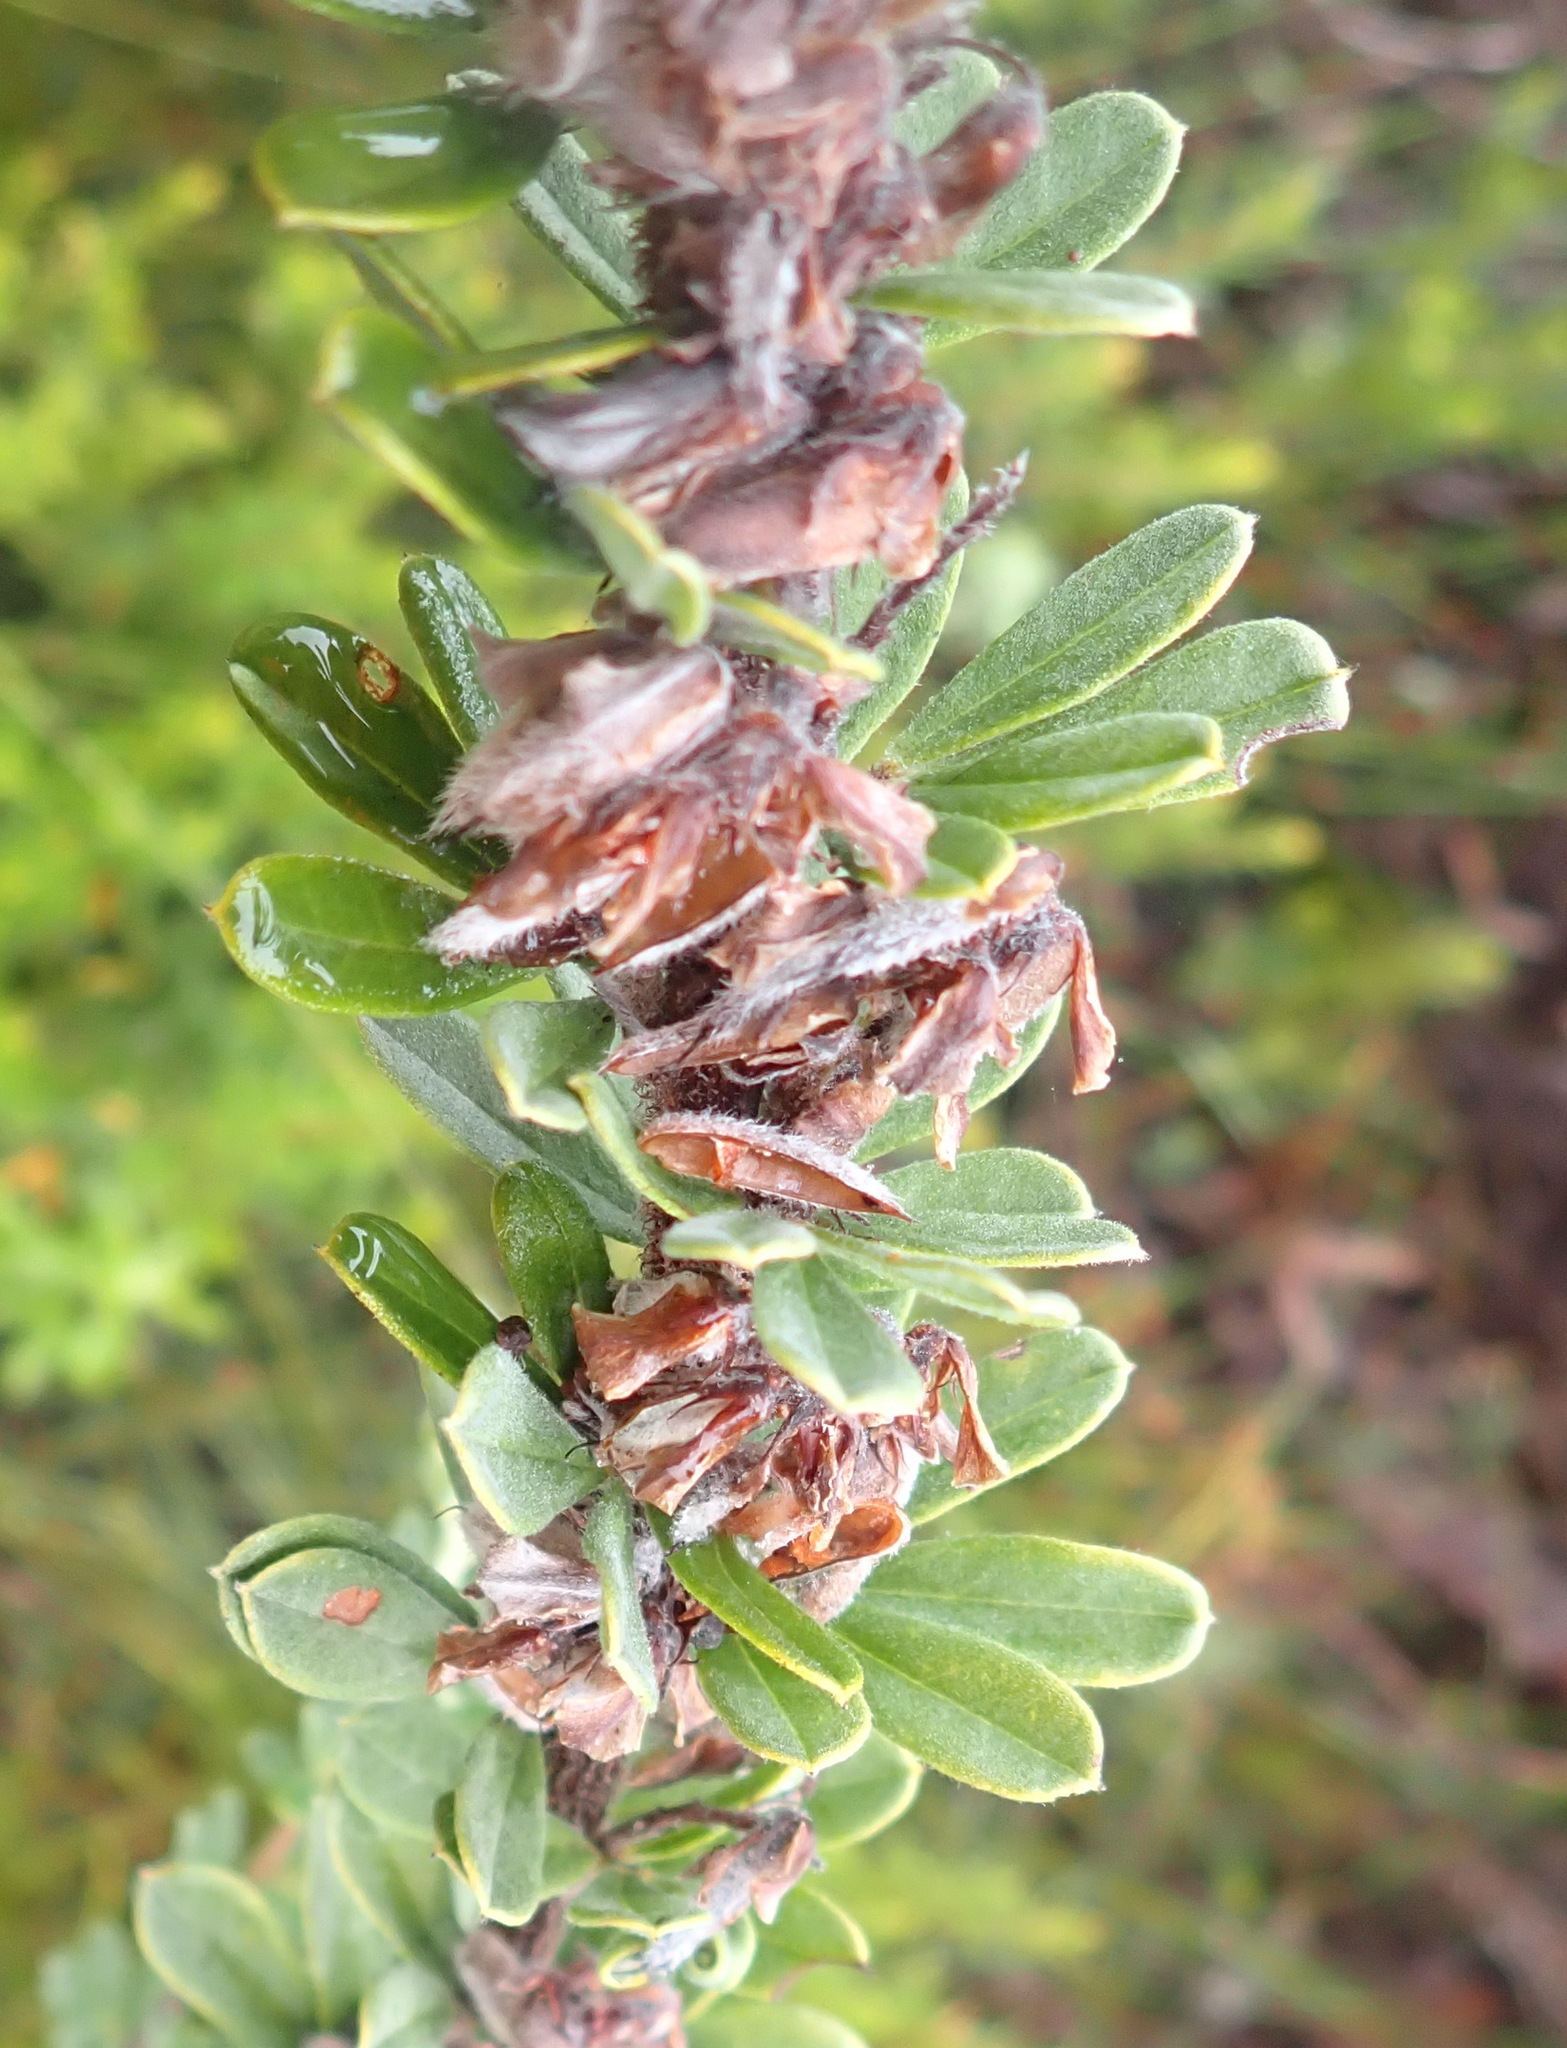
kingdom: Plantae
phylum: Tracheophyta
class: Magnoliopsida
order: Fabales
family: Fabaceae
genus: Indigofera
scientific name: Indigofera hispida
